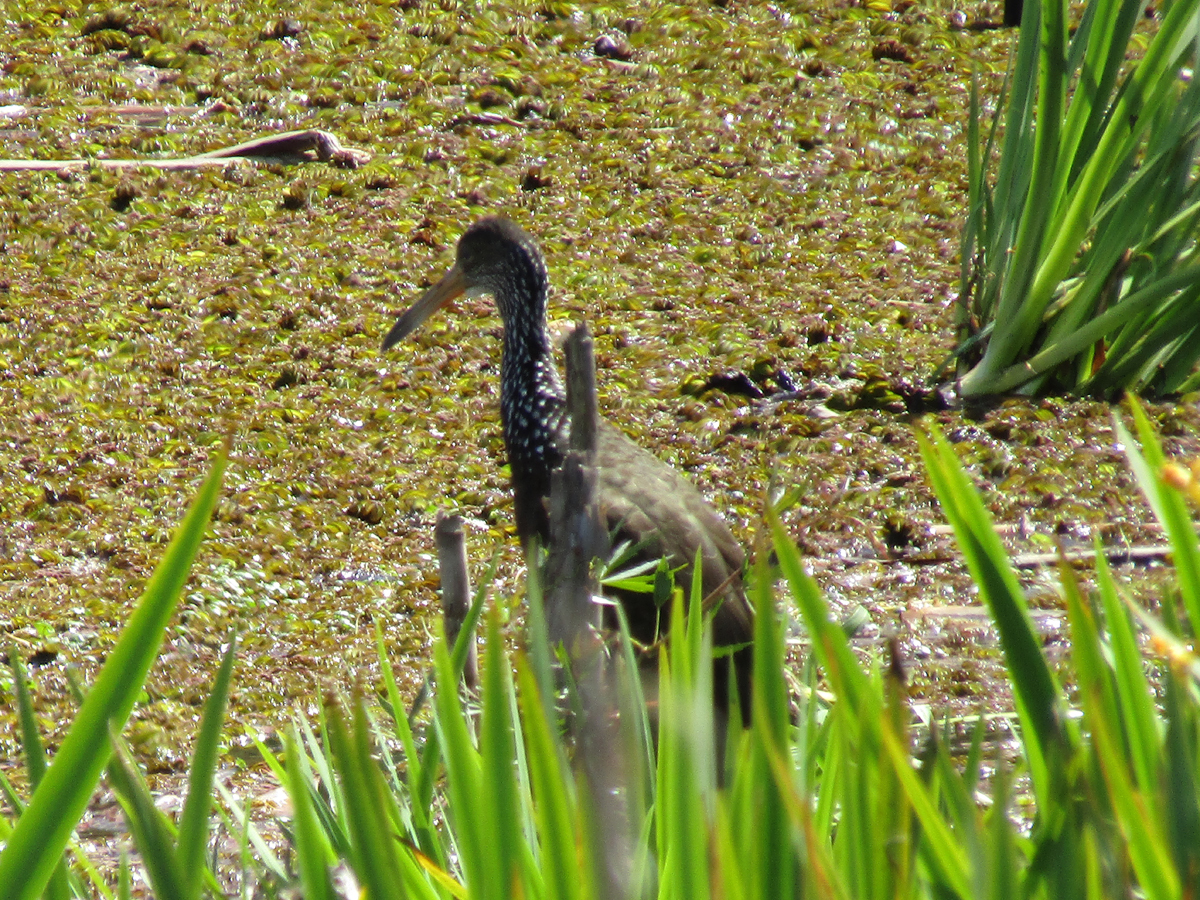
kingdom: Animalia
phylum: Chordata
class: Aves
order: Gruiformes
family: Aramidae
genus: Aramus
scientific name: Aramus guarauna
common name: Limpkin
